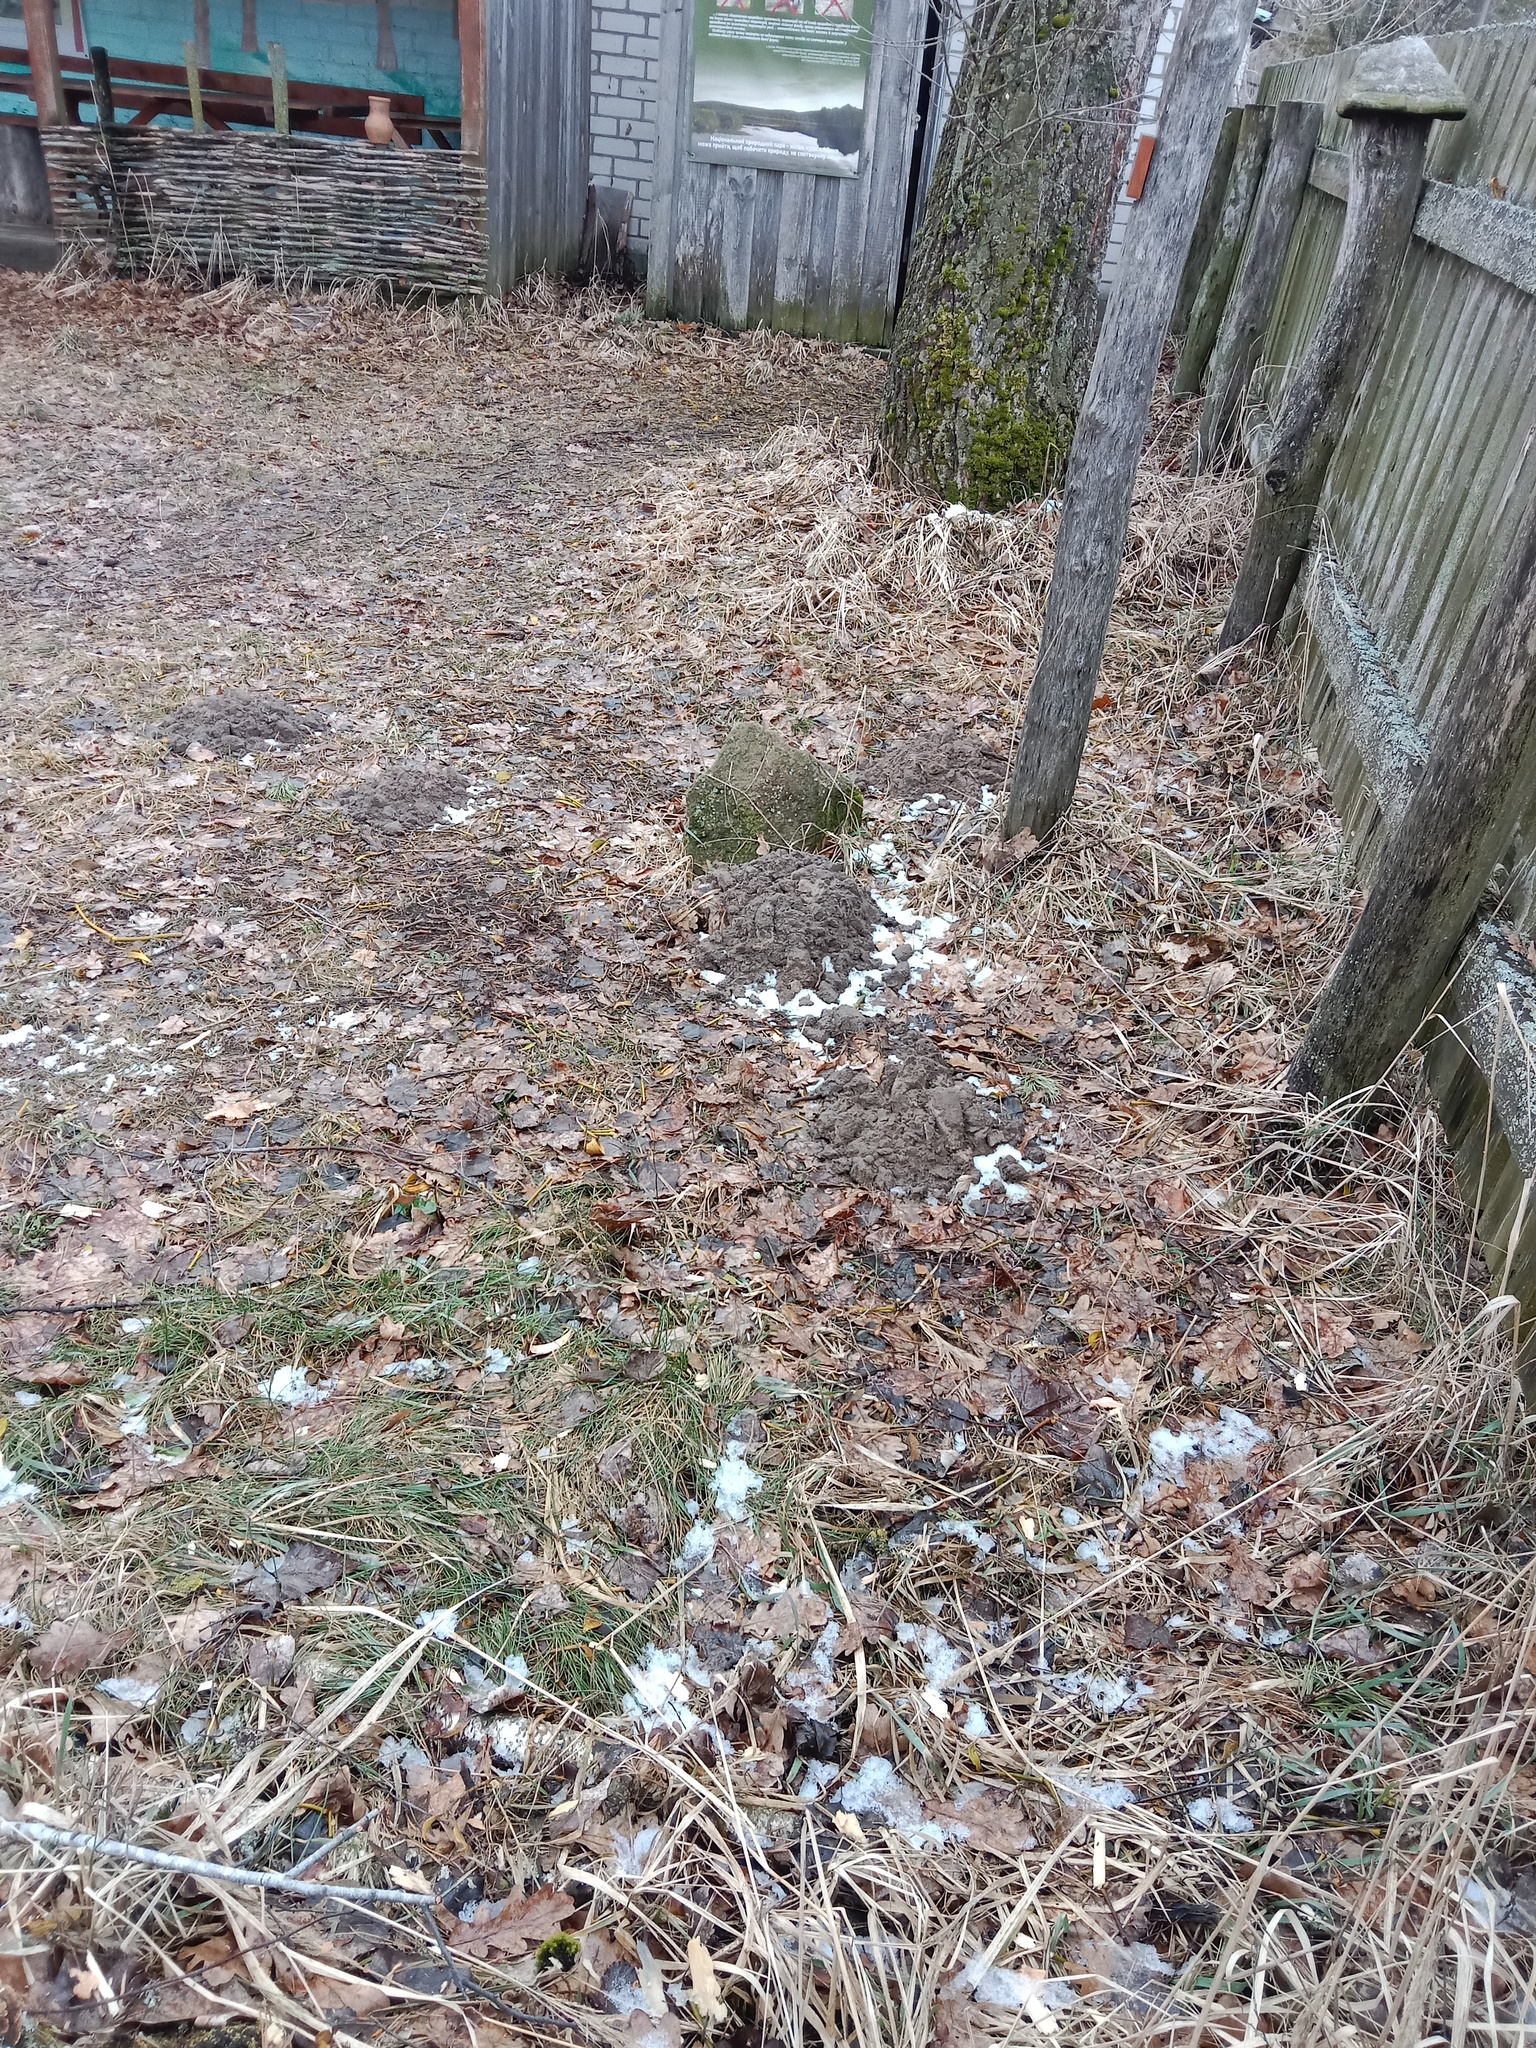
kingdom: Animalia
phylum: Chordata
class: Mammalia
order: Soricomorpha
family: Talpidae
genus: Talpa
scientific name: Talpa europaea
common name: European mole
